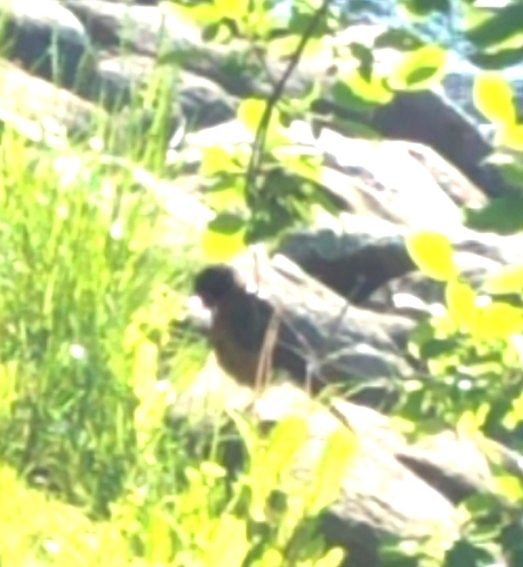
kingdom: Animalia
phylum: Chordata
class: Aves
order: Passeriformes
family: Turdidae
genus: Turdus
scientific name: Turdus migratorius
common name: American robin
